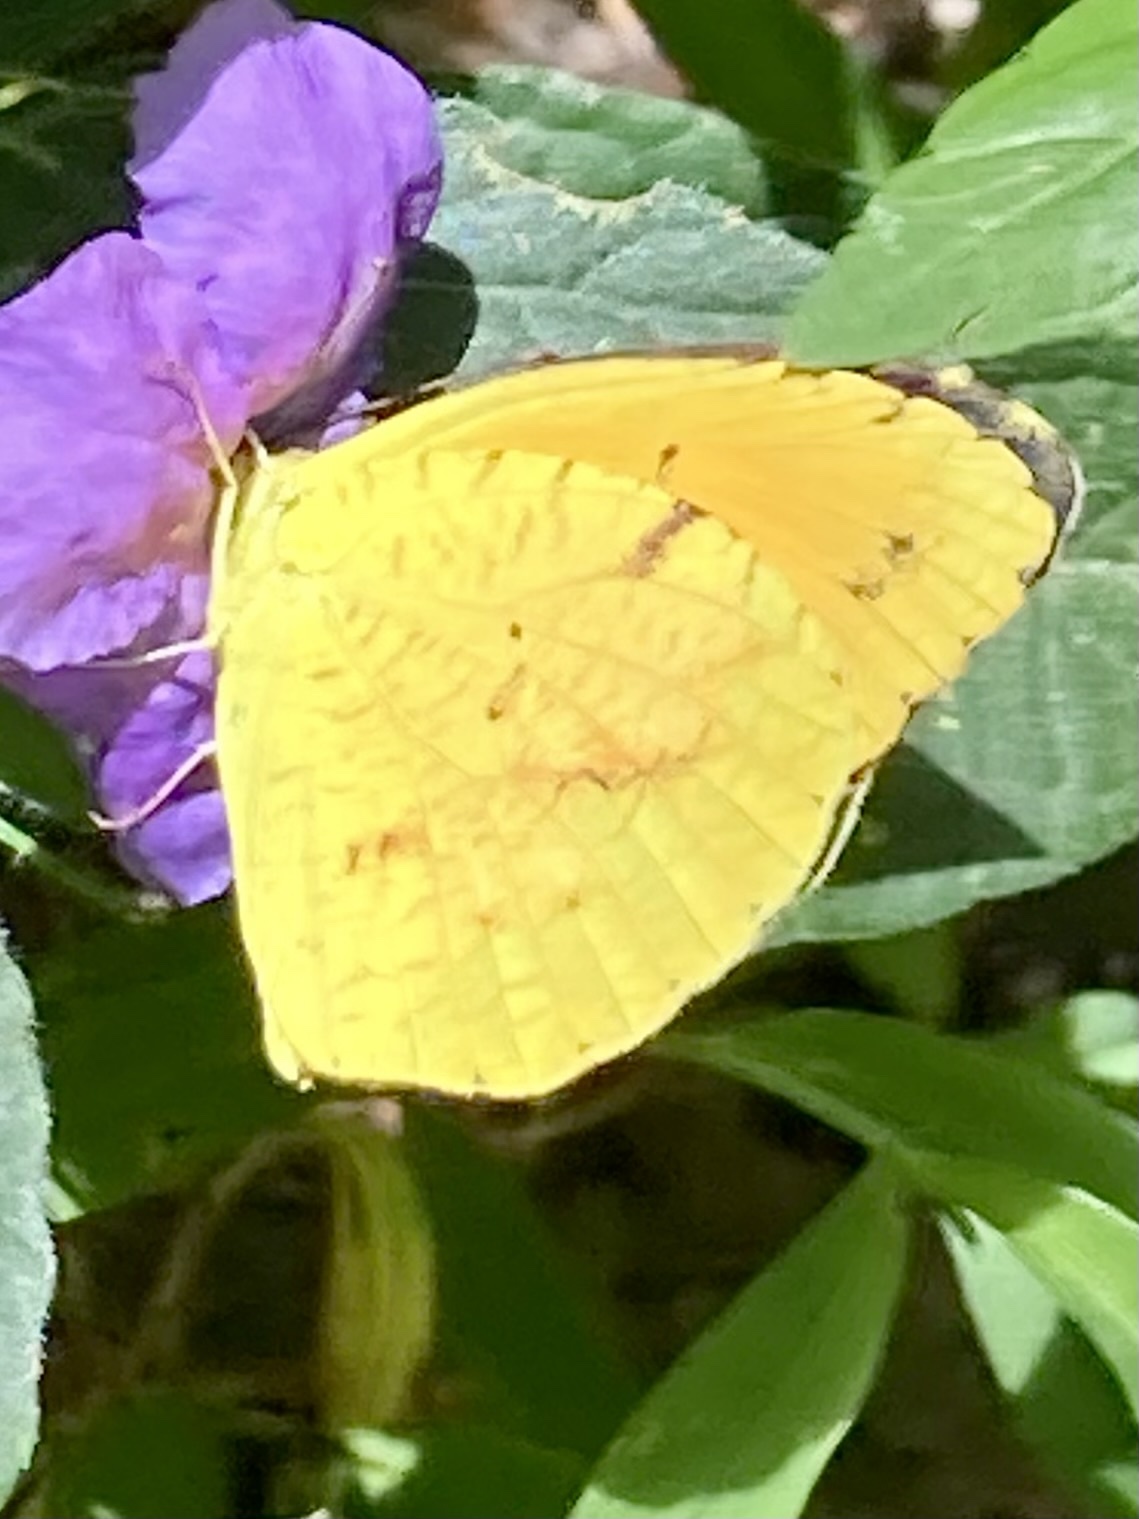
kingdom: Animalia
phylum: Arthropoda
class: Insecta
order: Lepidoptera
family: Pieridae
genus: Abaeis
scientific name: Abaeis nicippe
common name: Sleepy orange
